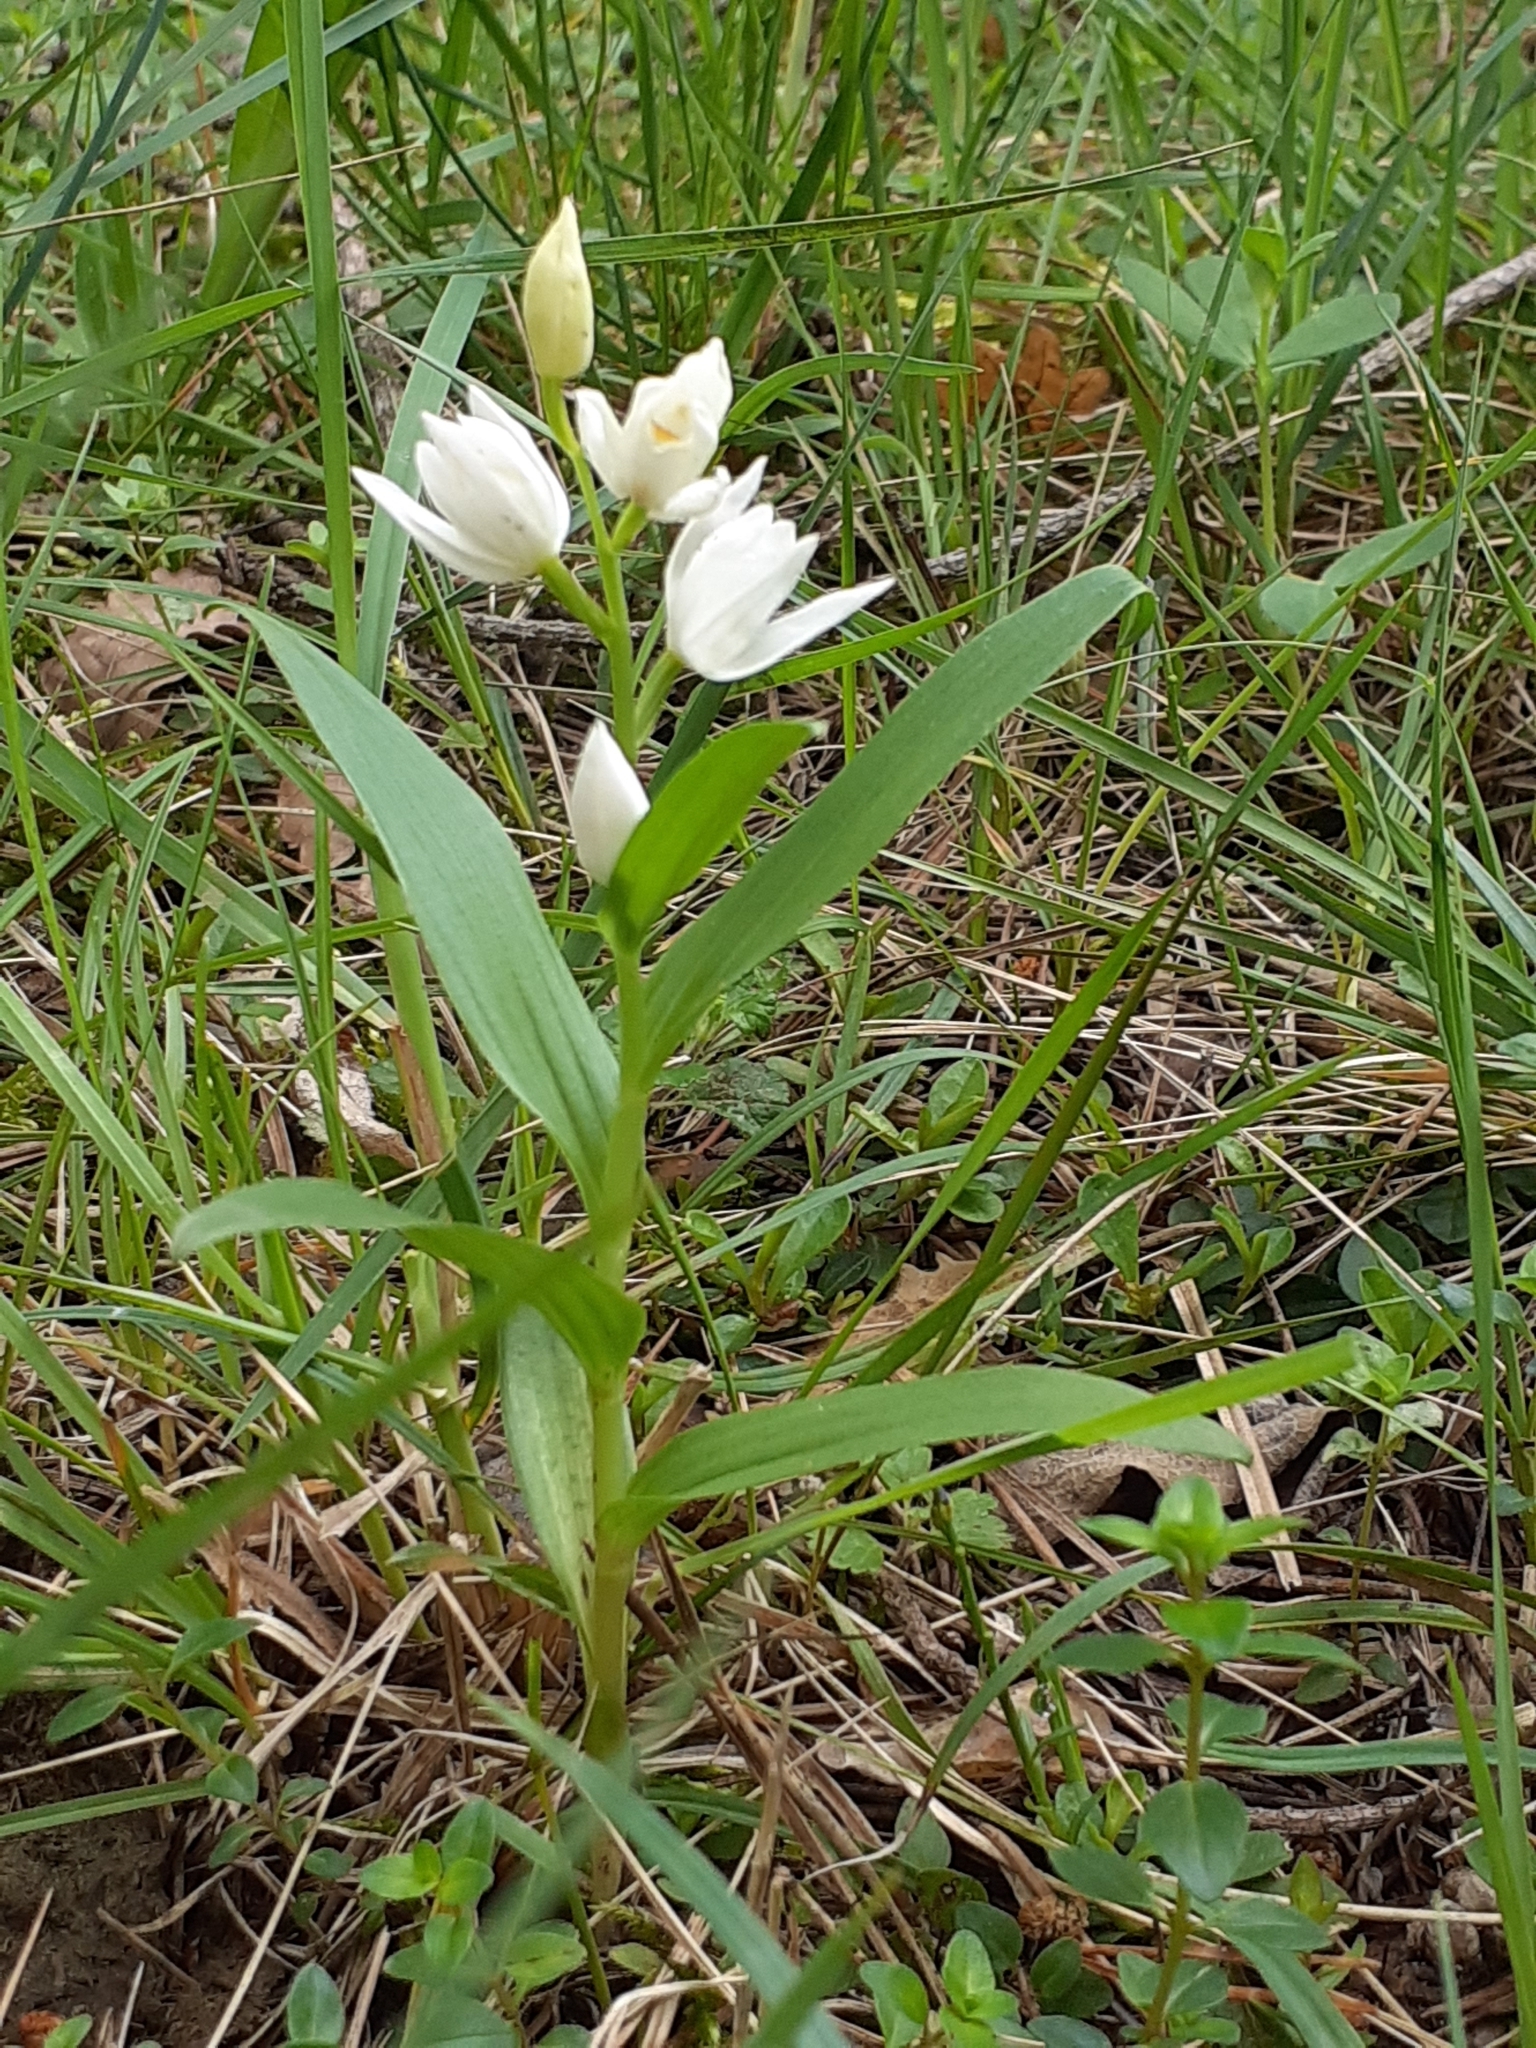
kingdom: Plantae
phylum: Tracheophyta
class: Liliopsida
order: Asparagales
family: Orchidaceae
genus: Cephalanthera
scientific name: Cephalanthera longifolia
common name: Narrow-leaved helleborine
